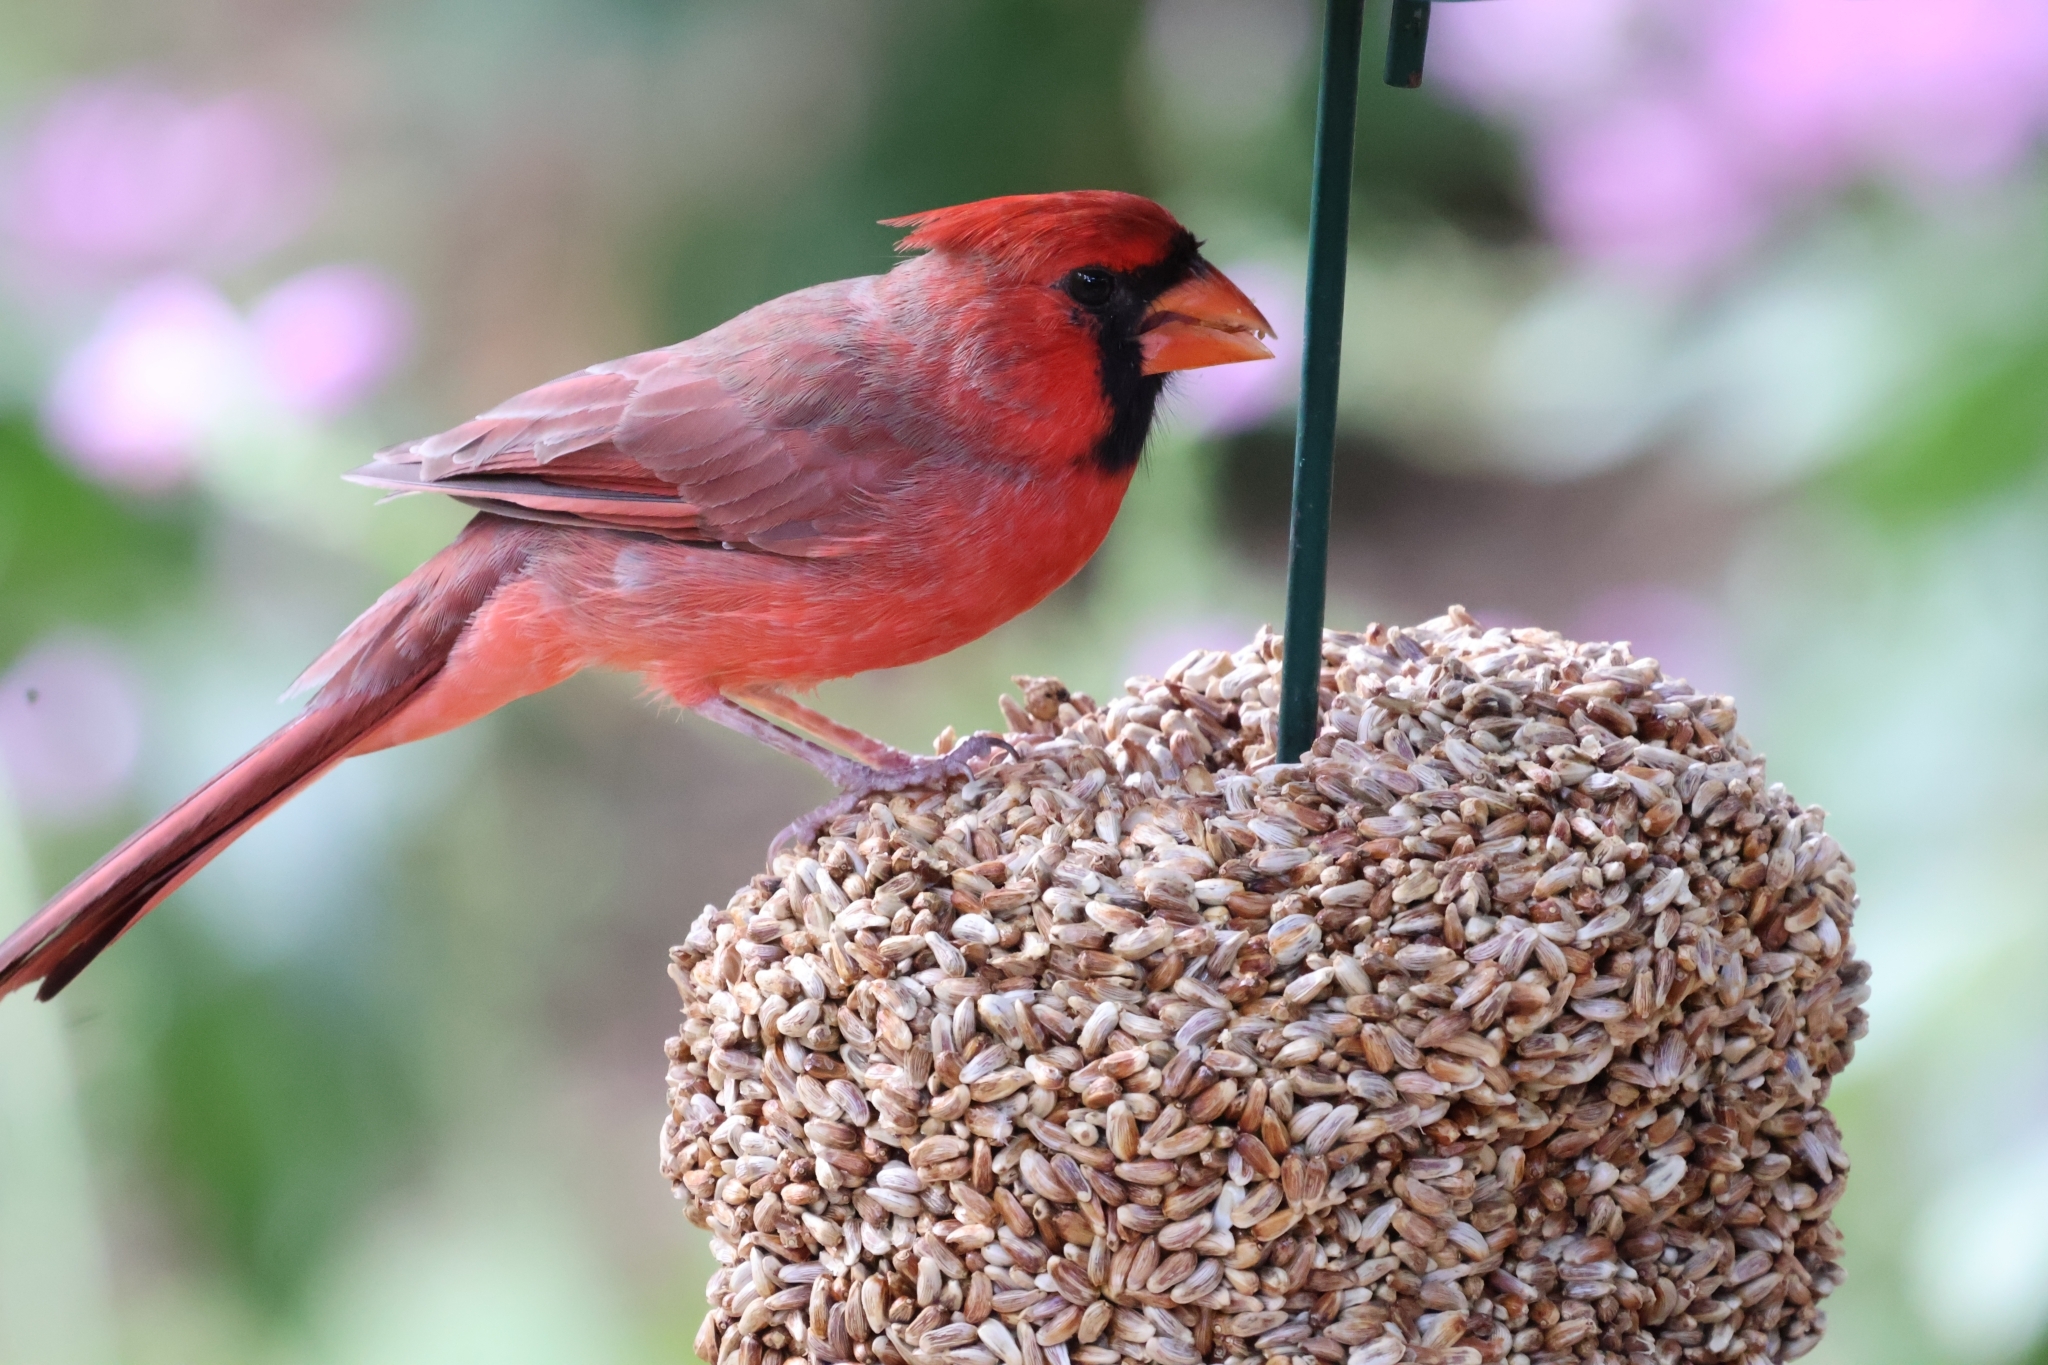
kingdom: Animalia
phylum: Chordata
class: Aves
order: Passeriformes
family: Cardinalidae
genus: Cardinalis
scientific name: Cardinalis cardinalis
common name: Northern cardinal
